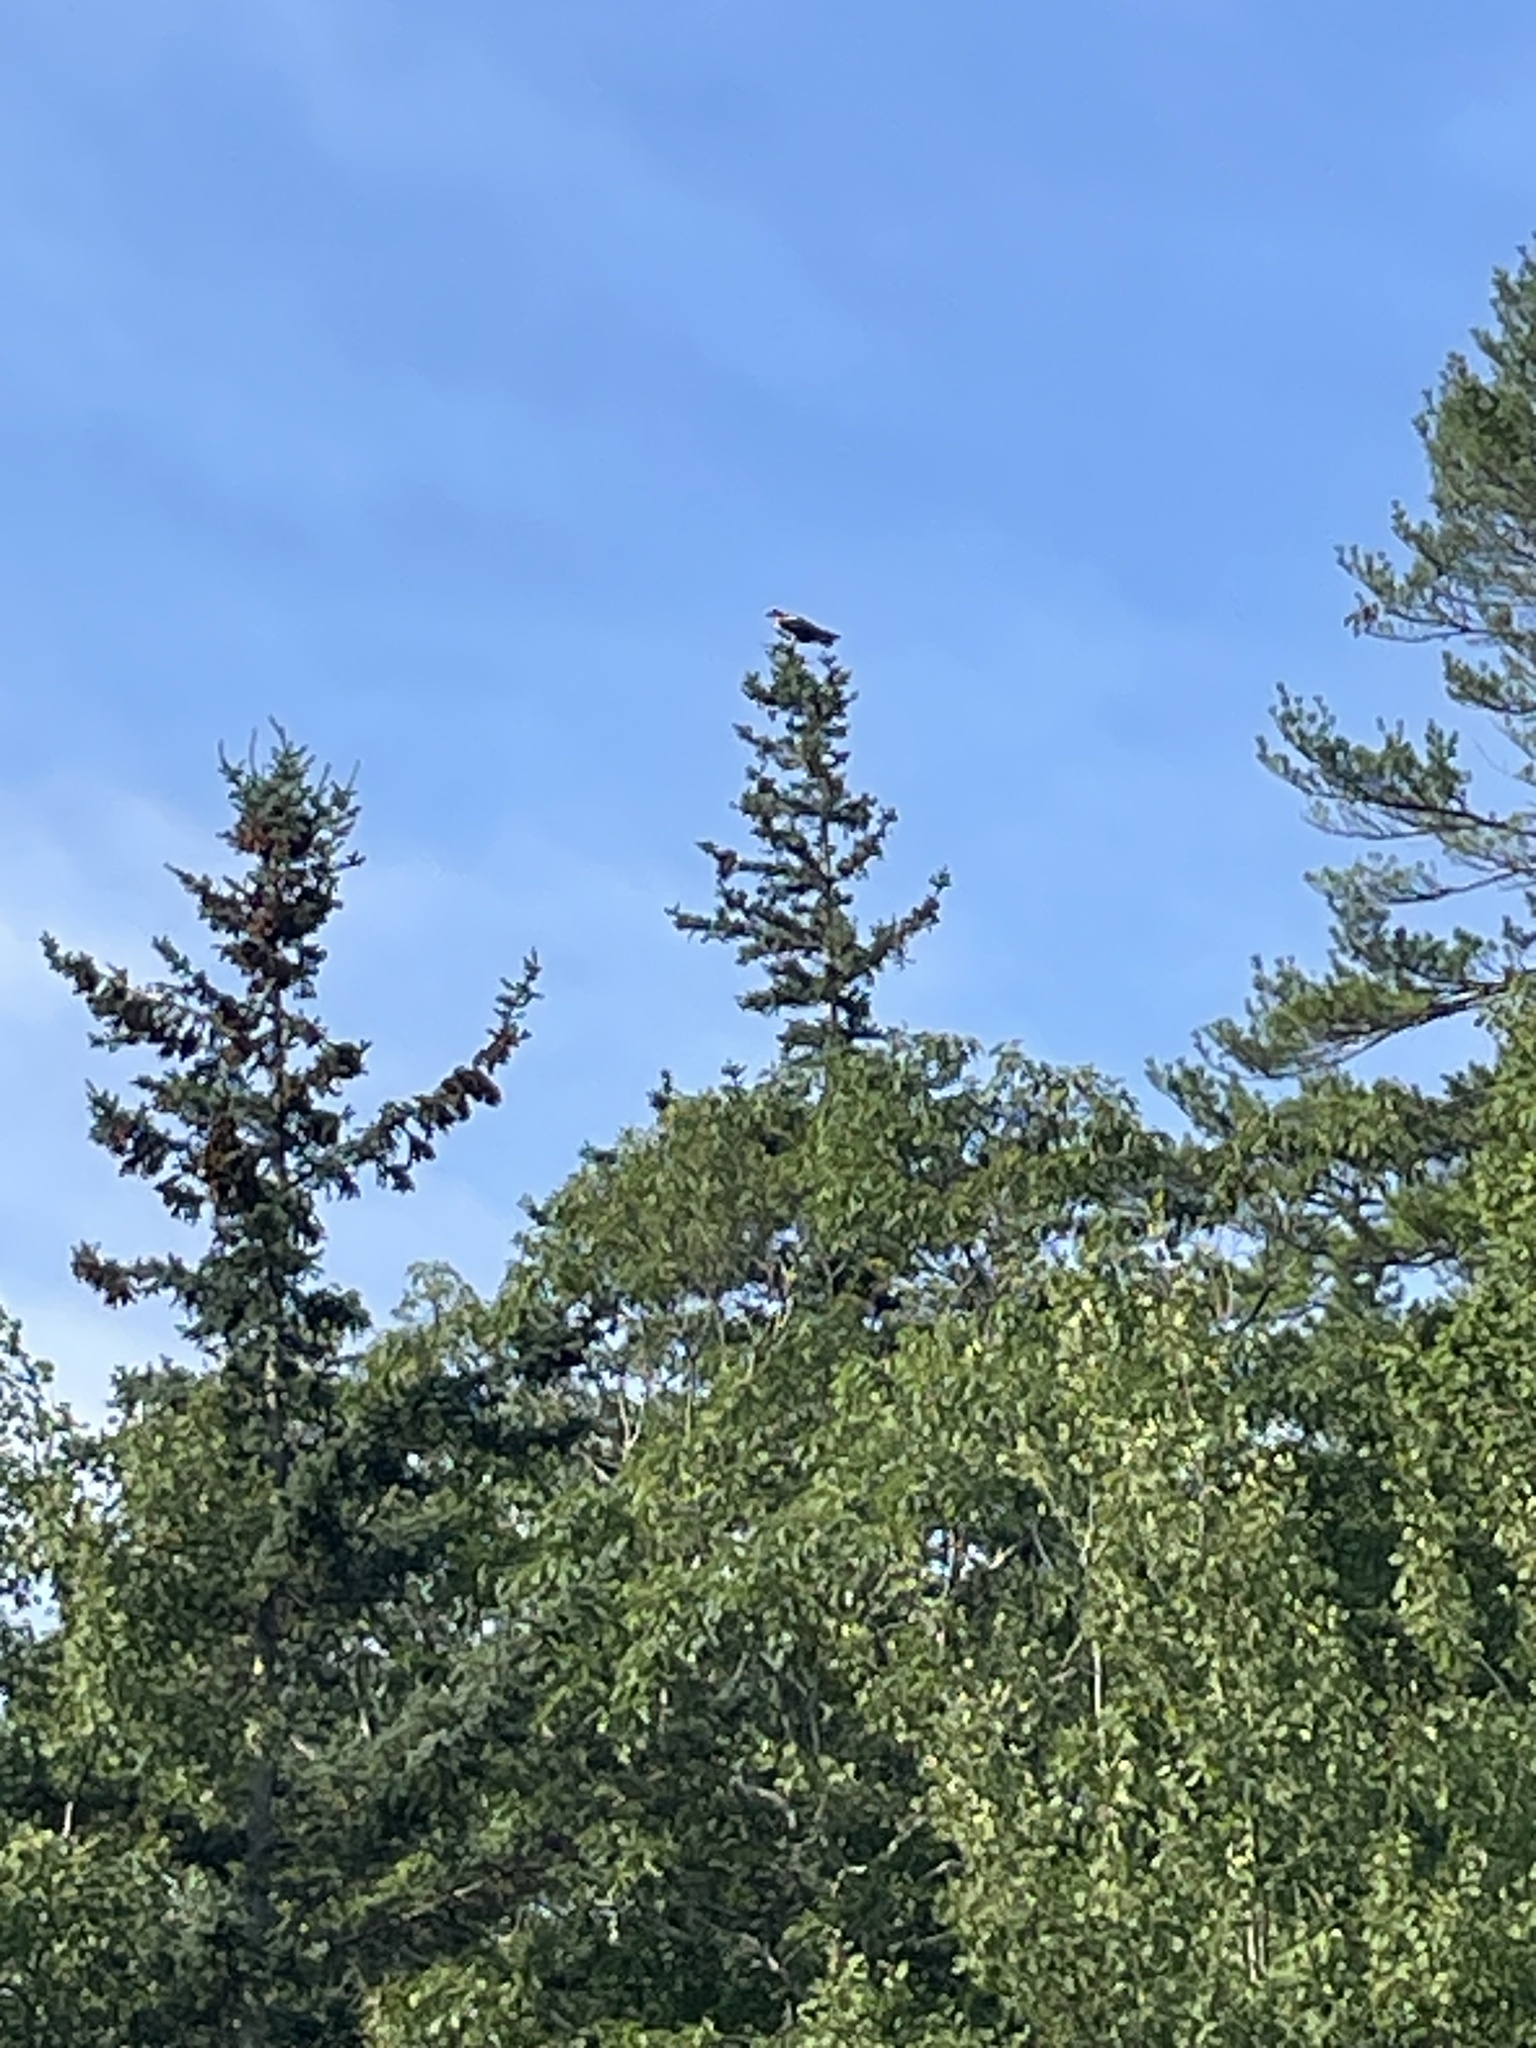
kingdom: Animalia
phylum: Chordata
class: Aves
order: Accipitriformes
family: Pandionidae
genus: Pandion
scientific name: Pandion haliaetus
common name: Osprey
